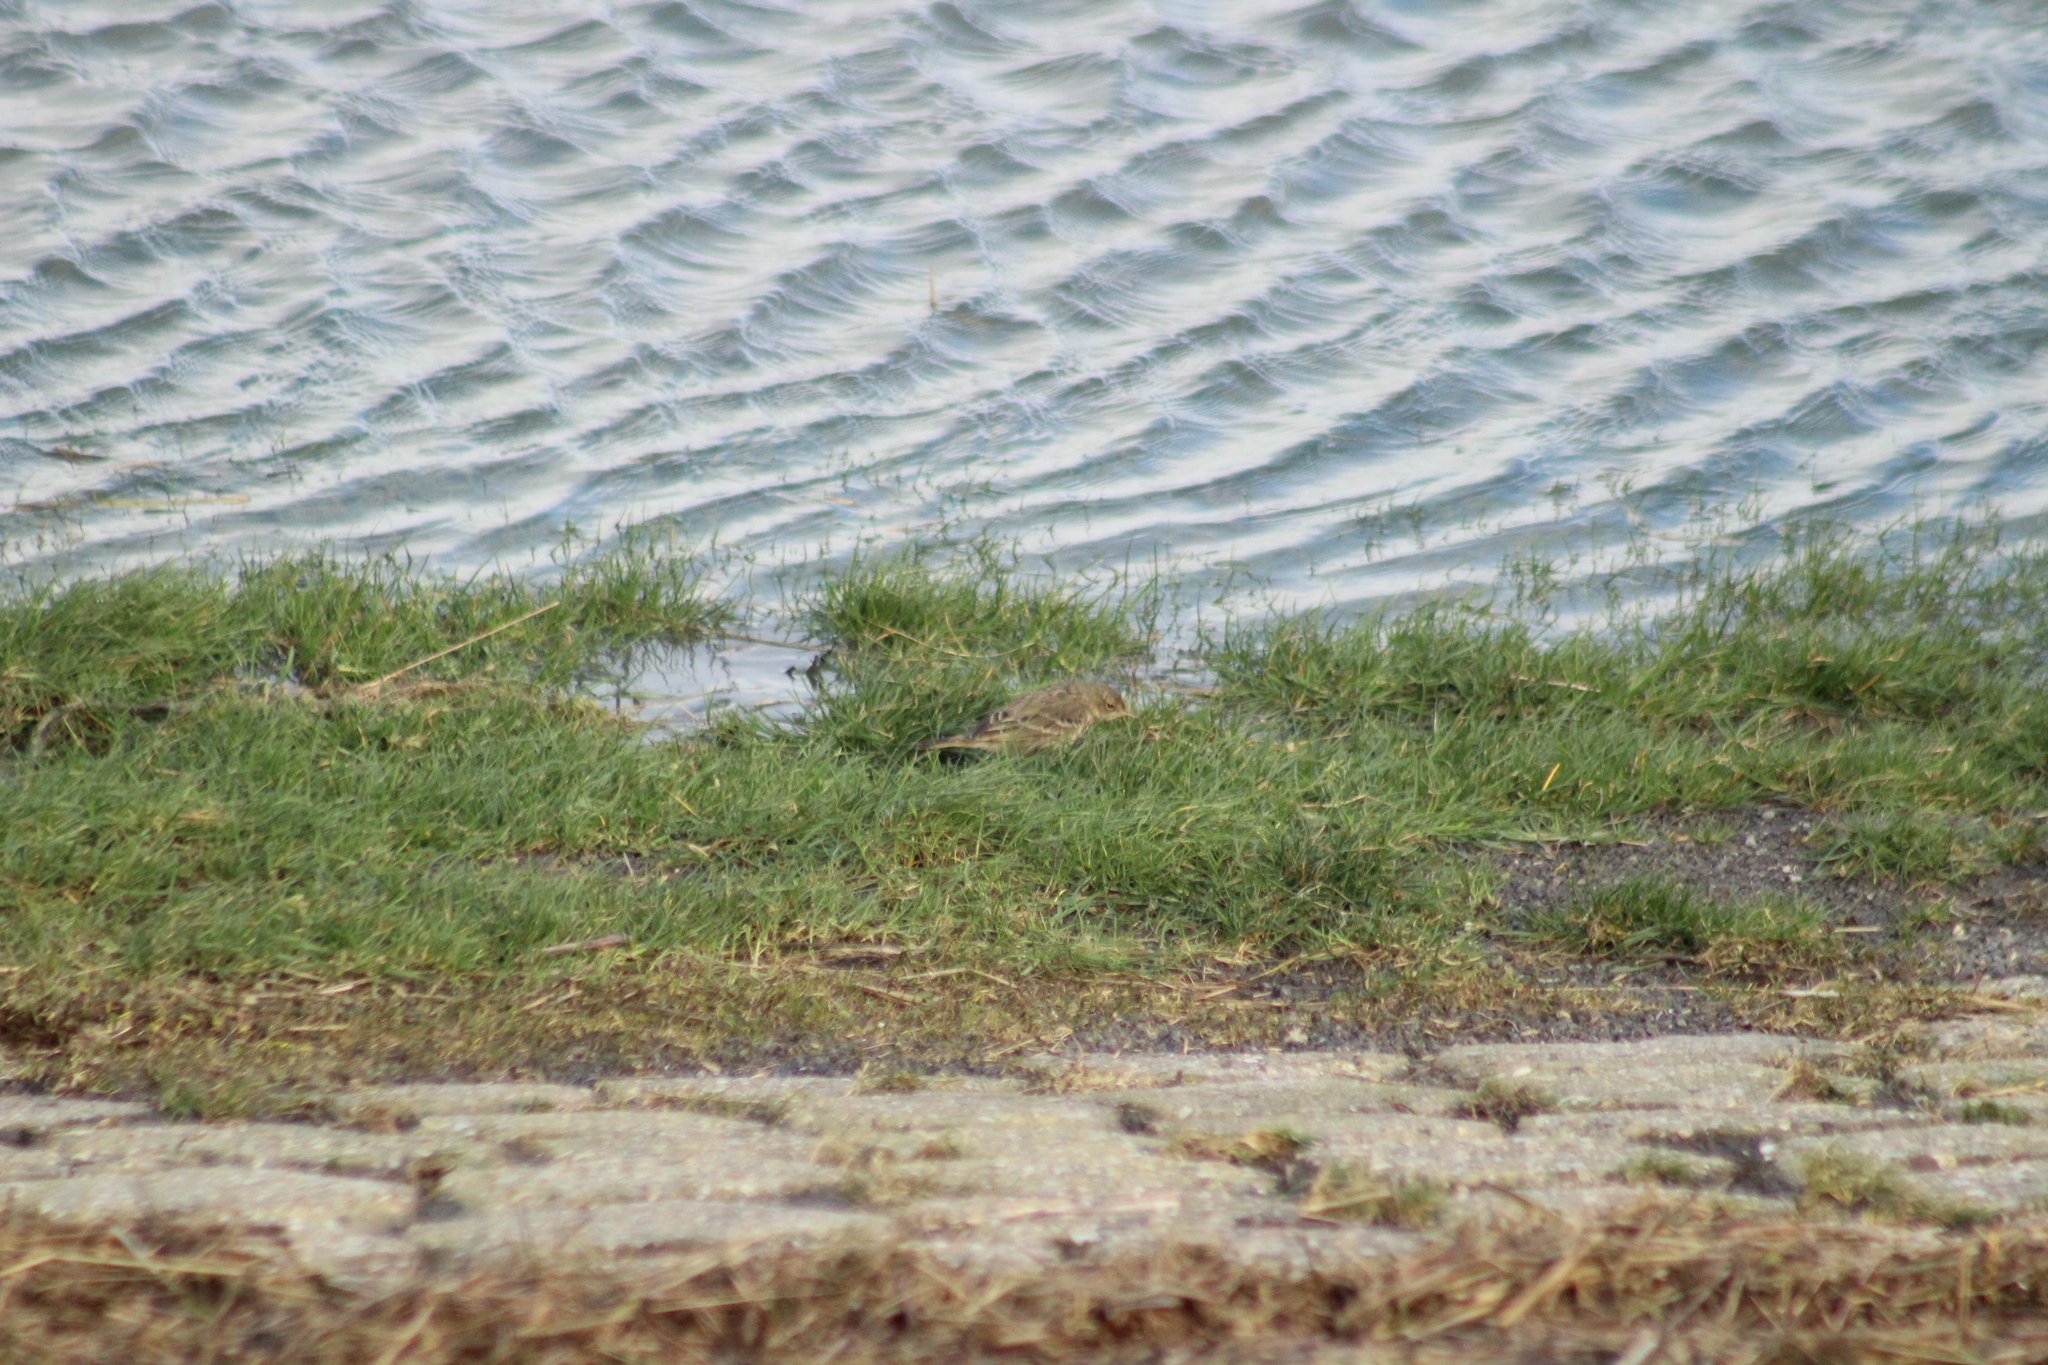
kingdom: Animalia
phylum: Chordata
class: Aves
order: Passeriformes
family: Motacillidae
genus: Anthus
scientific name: Anthus petrosus
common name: Eurasian rock pipit
